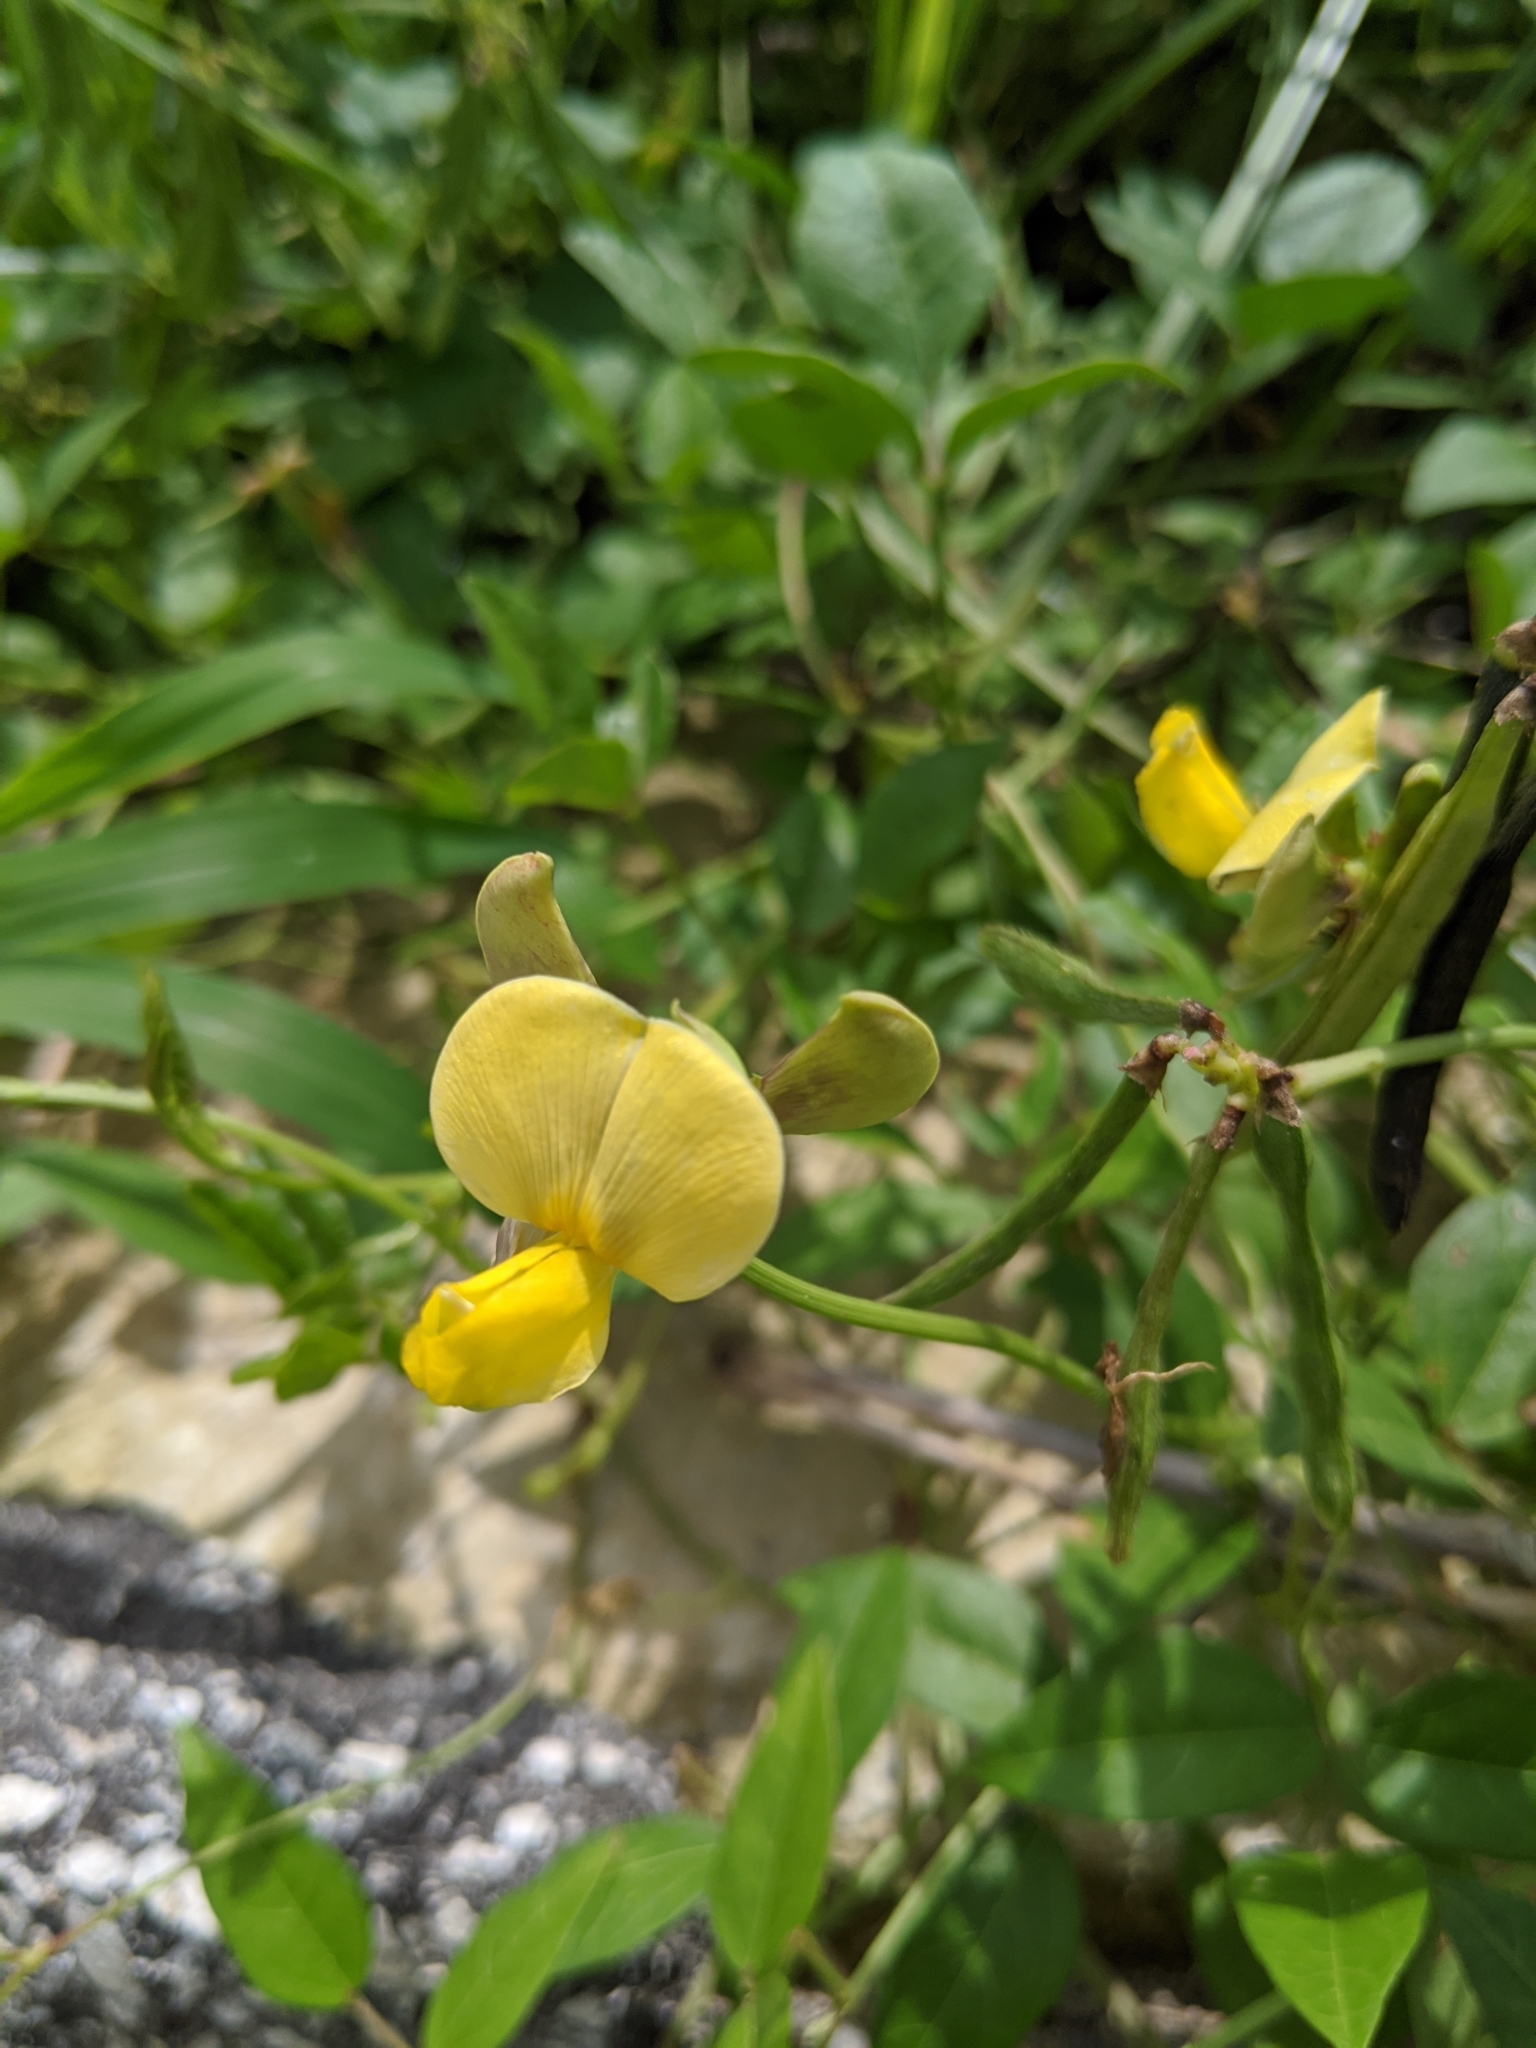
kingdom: Plantae
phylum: Tracheophyta
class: Magnoliopsida
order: Fabales
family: Fabaceae
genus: Vigna
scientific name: Vigna luteola
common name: Hairypod cowpea
